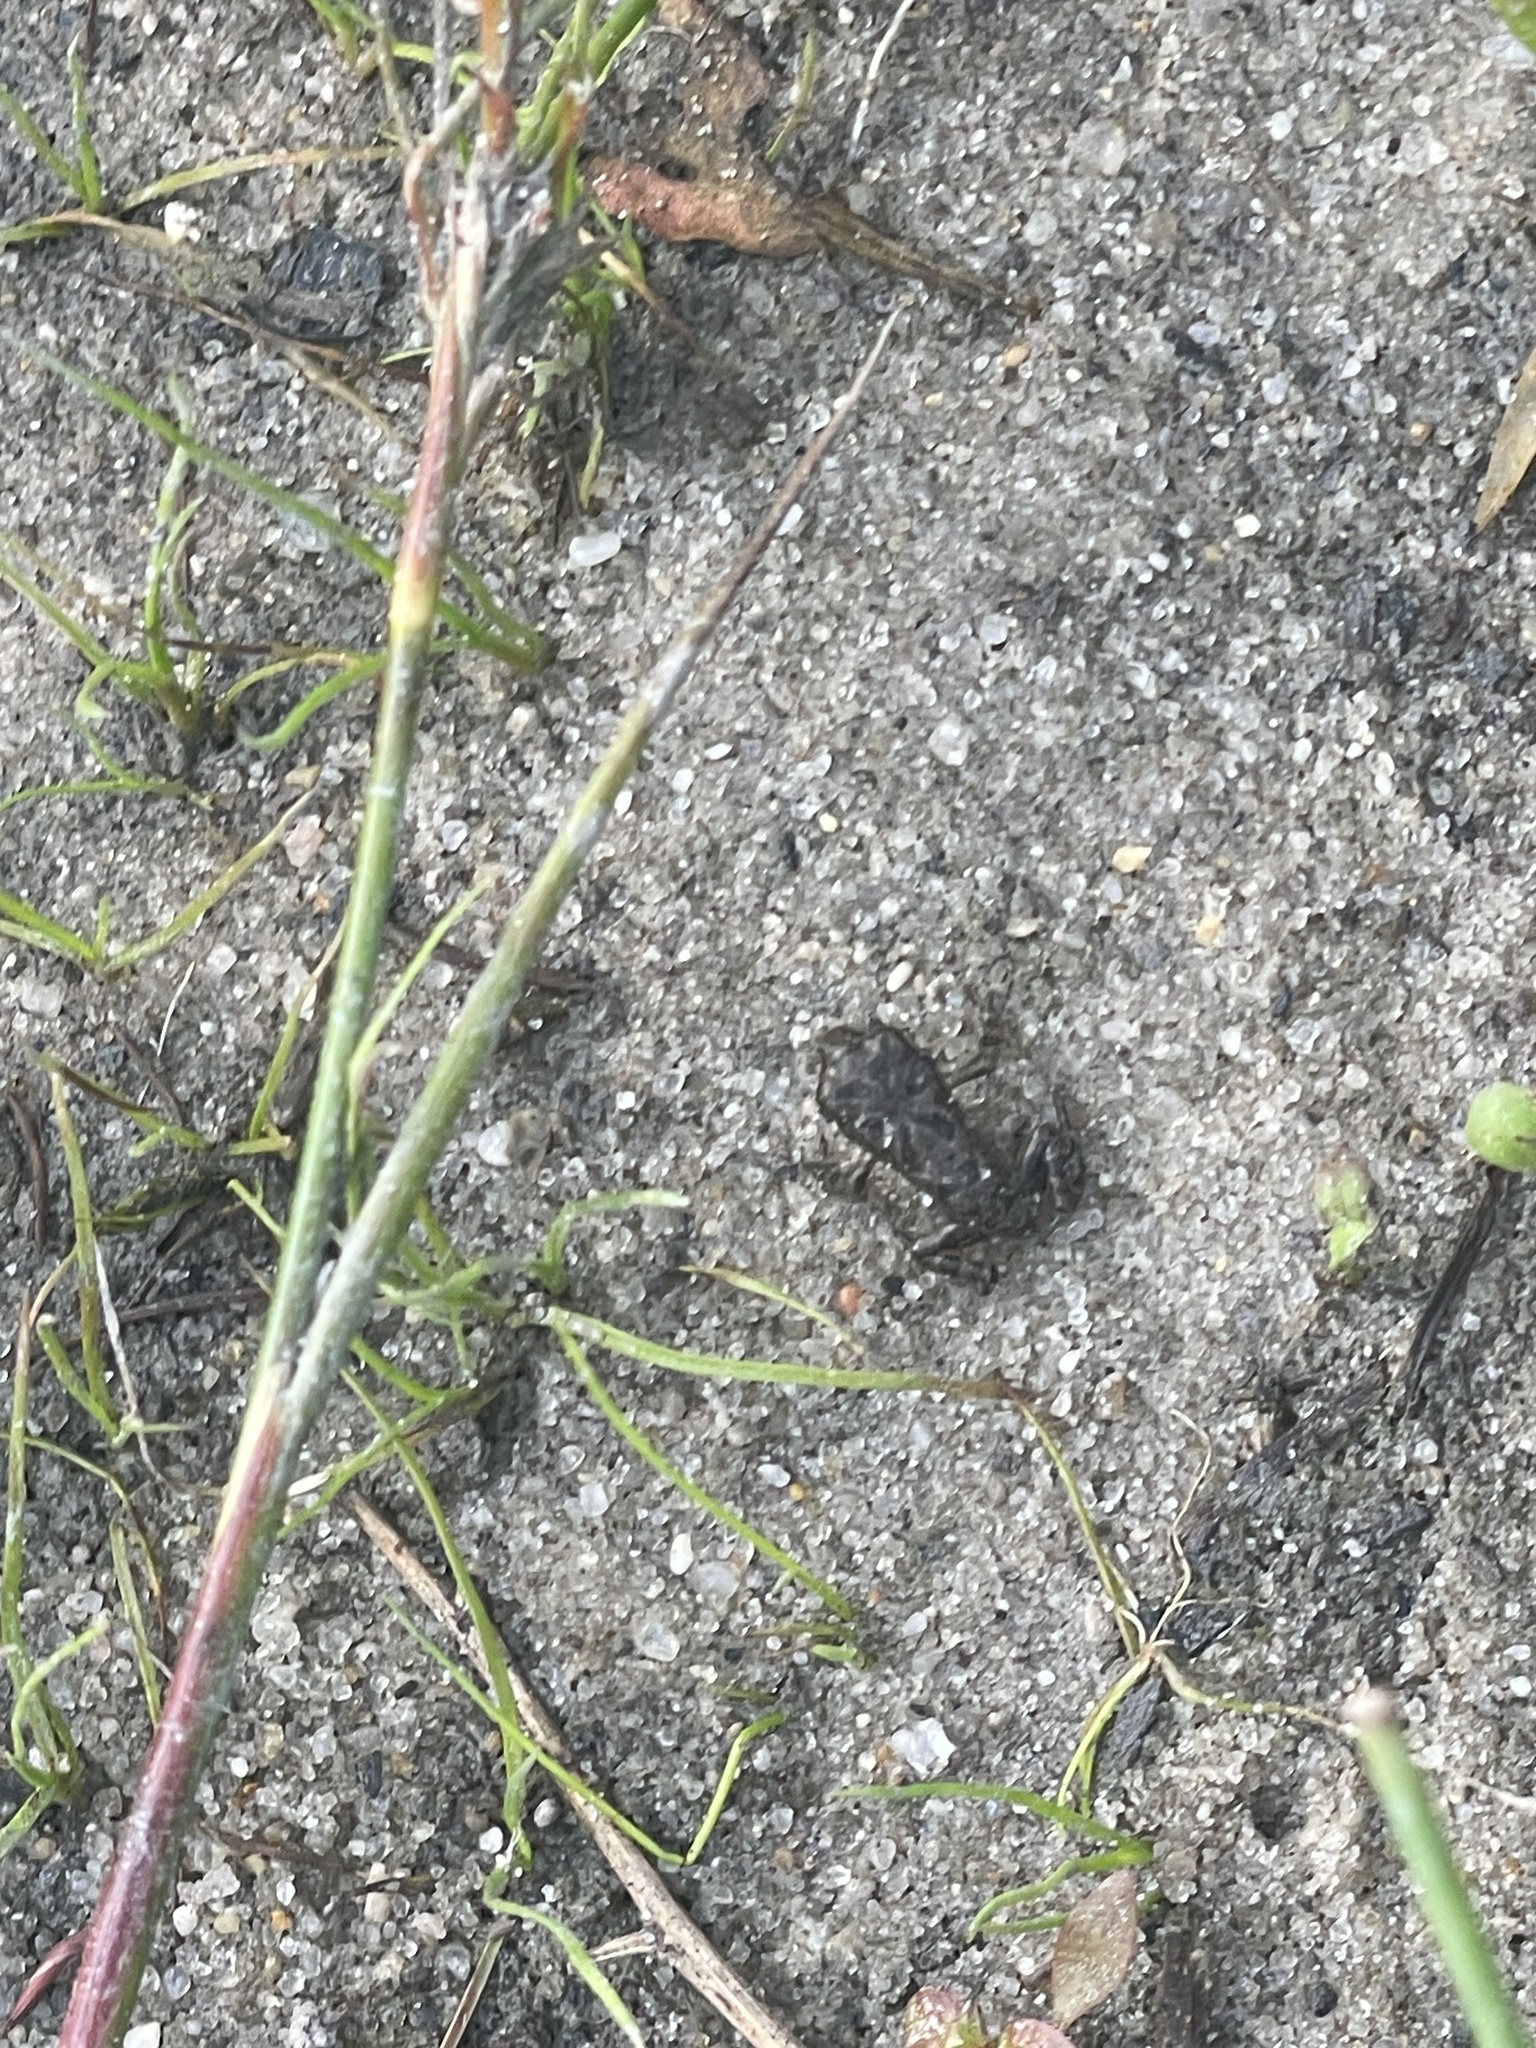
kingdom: Animalia
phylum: Chordata
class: Amphibia
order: Anura
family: Bufonidae
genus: Anaxyrus
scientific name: Anaxyrus fowleri
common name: Fowler's toad
